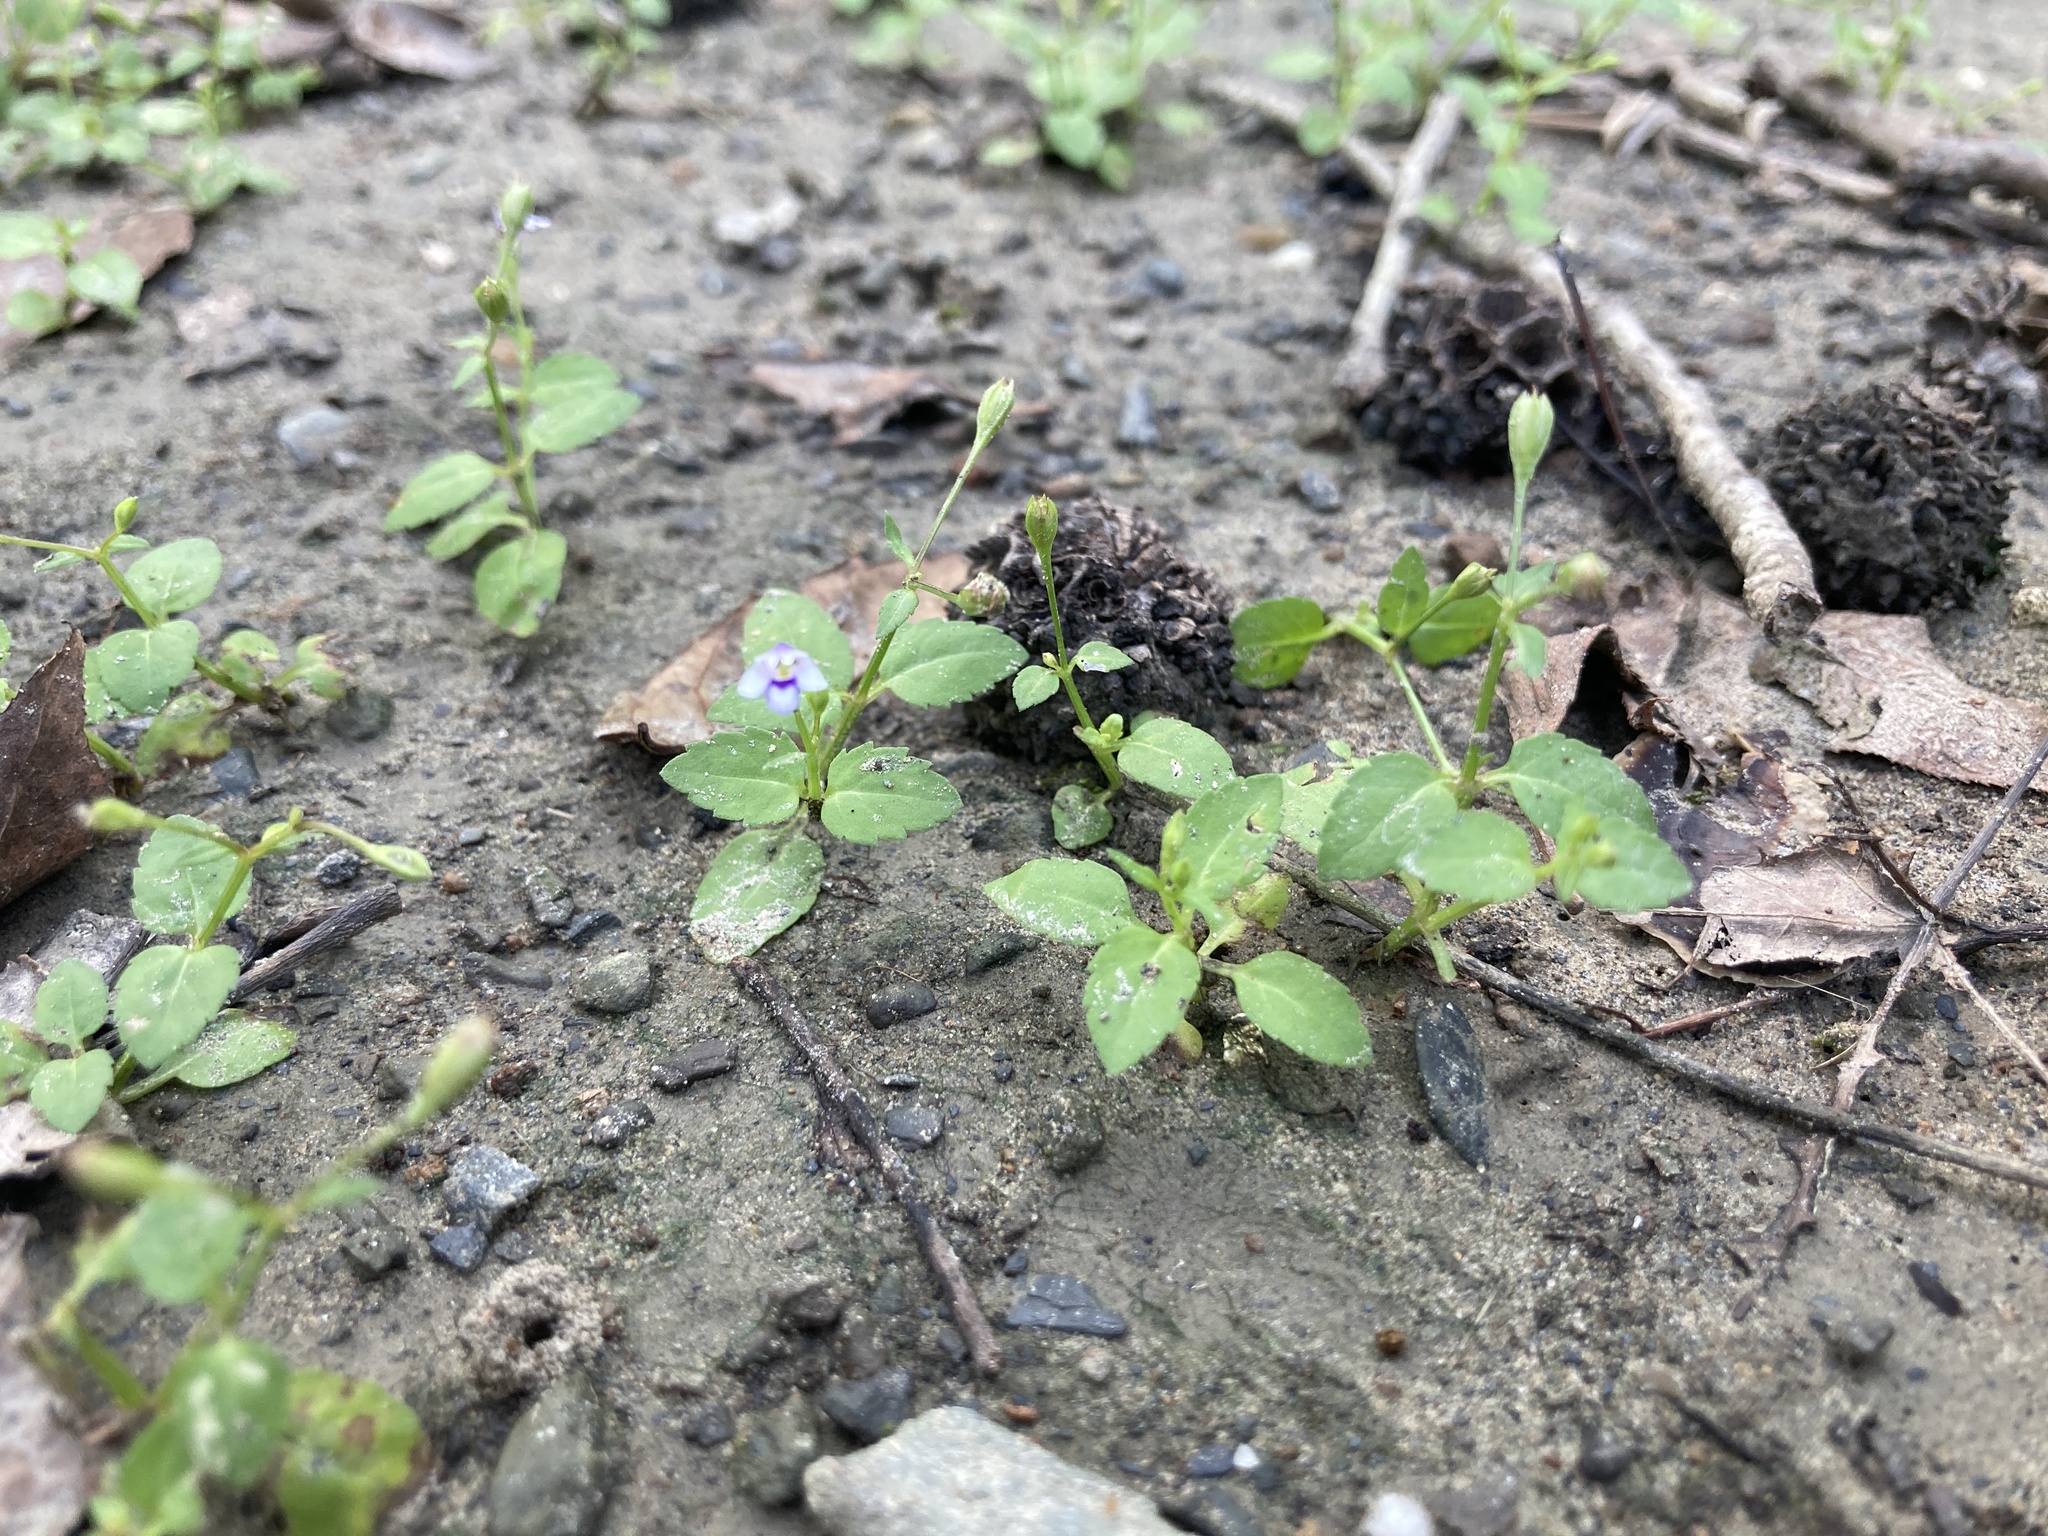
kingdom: Plantae
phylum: Tracheophyta
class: Magnoliopsida
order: Lamiales
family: Linderniaceae
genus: Torenia
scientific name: Torenia crustacea
